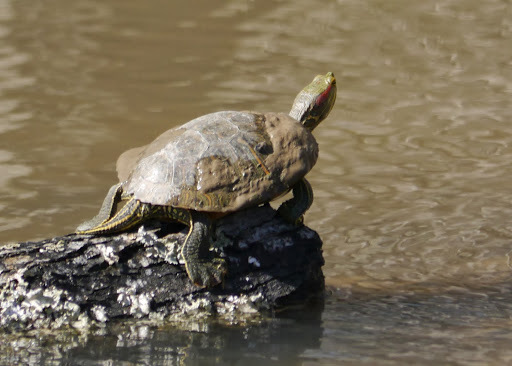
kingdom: Animalia
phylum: Chordata
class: Testudines
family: Emydidae
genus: Trachemys
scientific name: Trachemys scripta
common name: Slider
